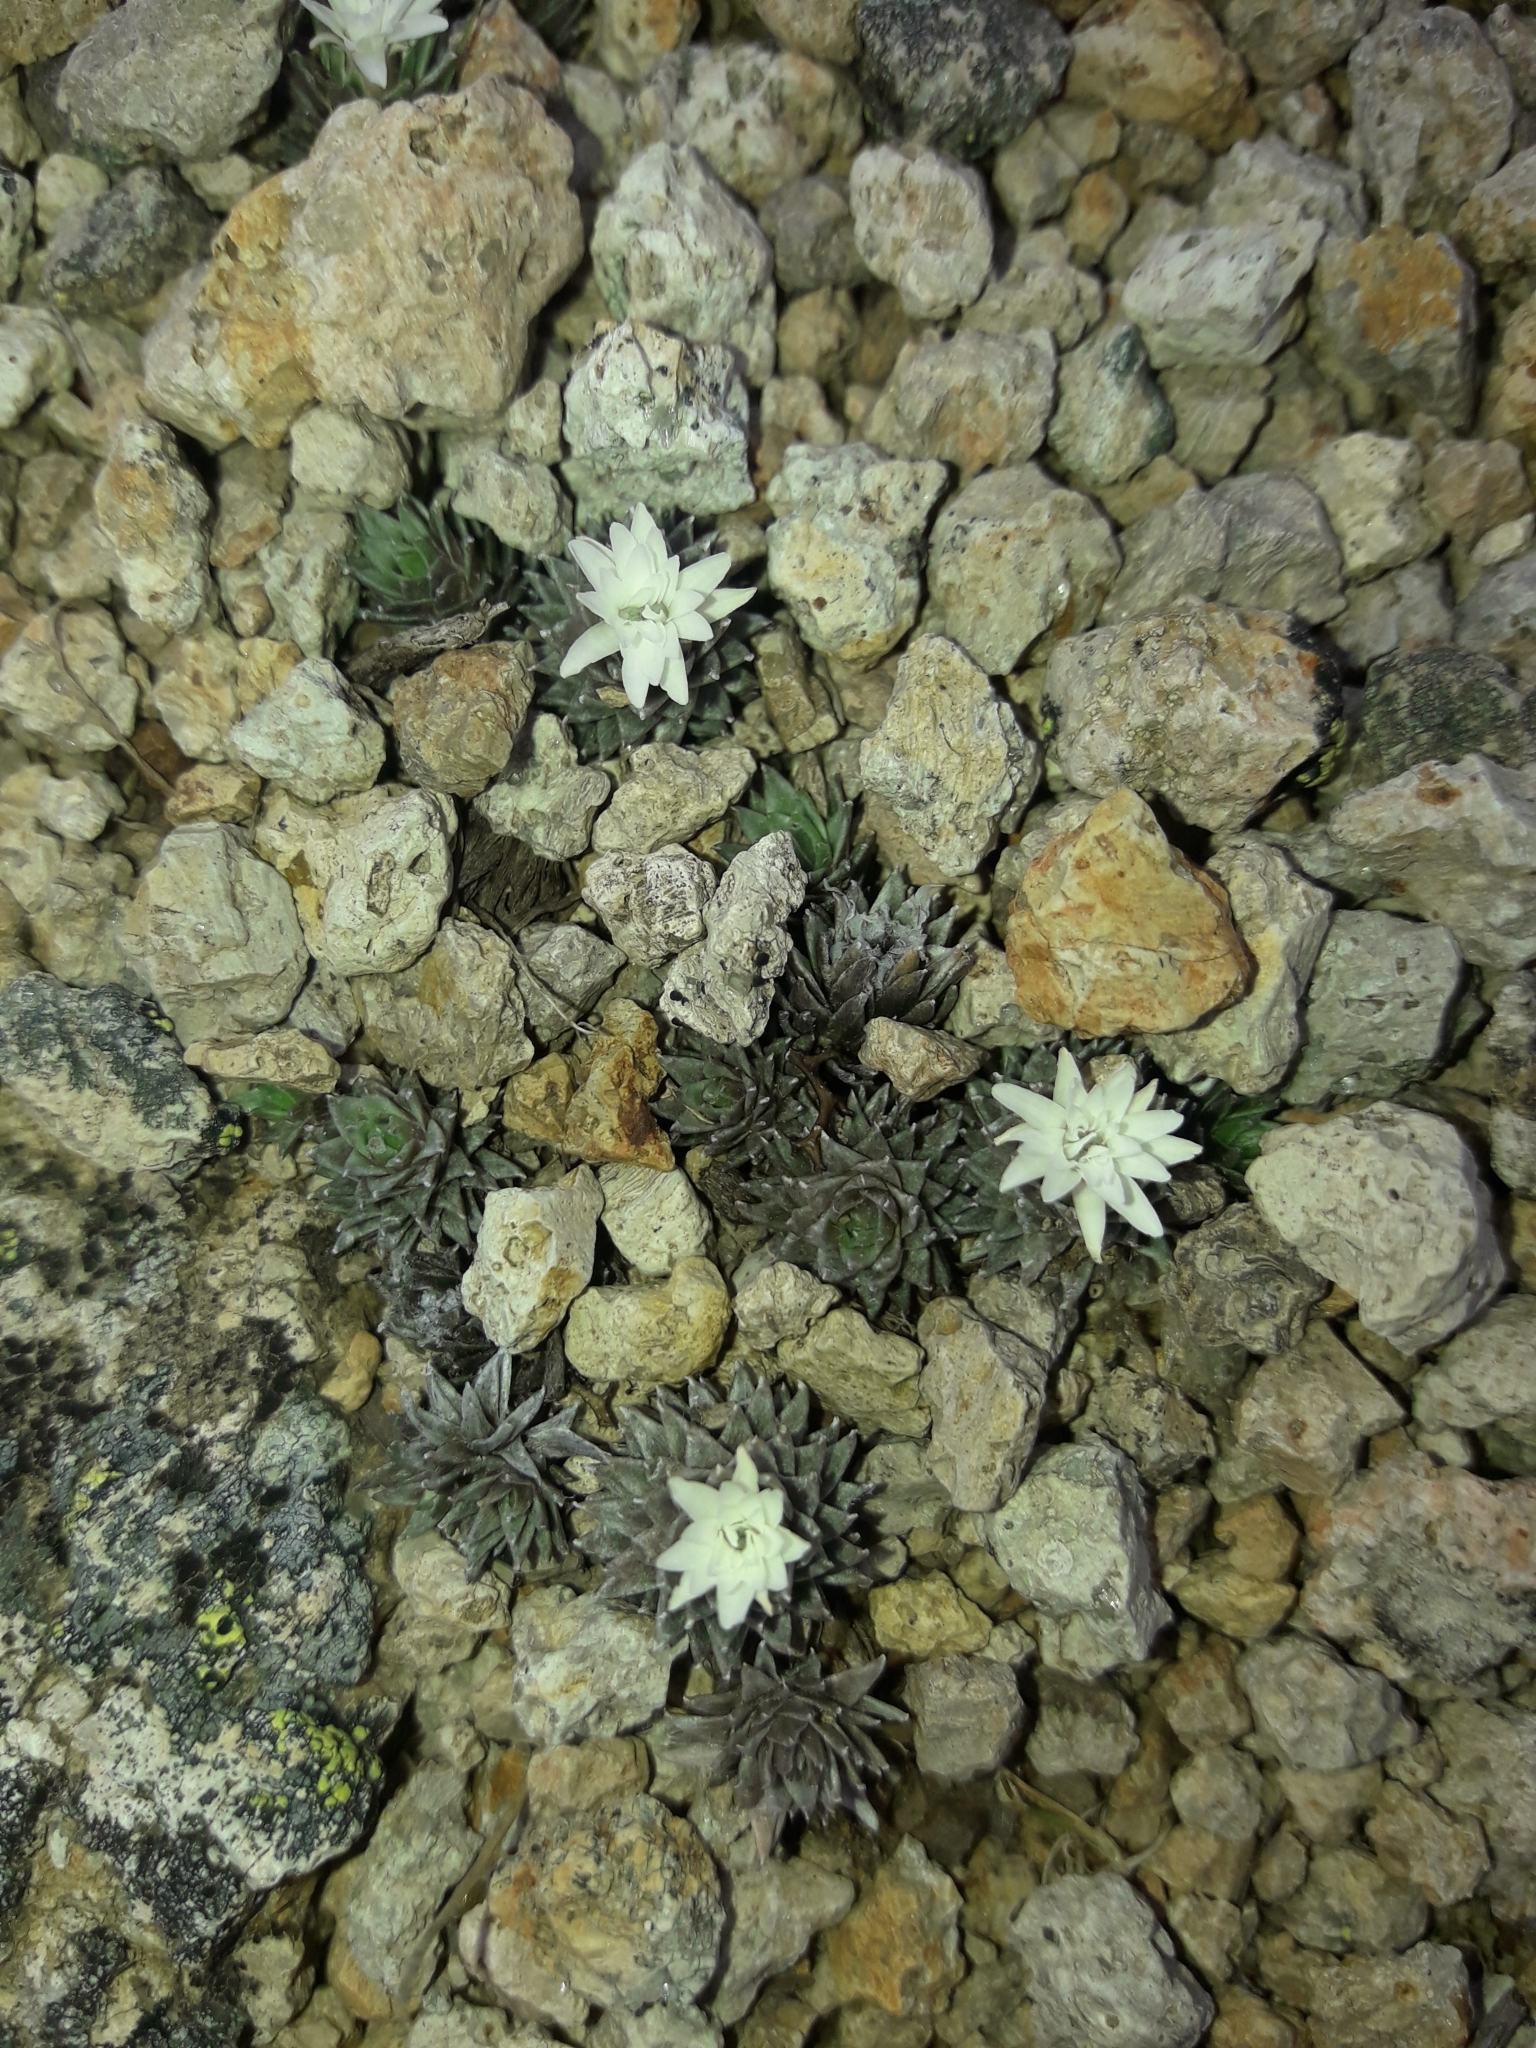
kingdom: Plantae
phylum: Tracheophyta
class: Magnoliopsida
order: Asterales
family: Asteraceae
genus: Raoulia
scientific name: Raoulia grandiflora
